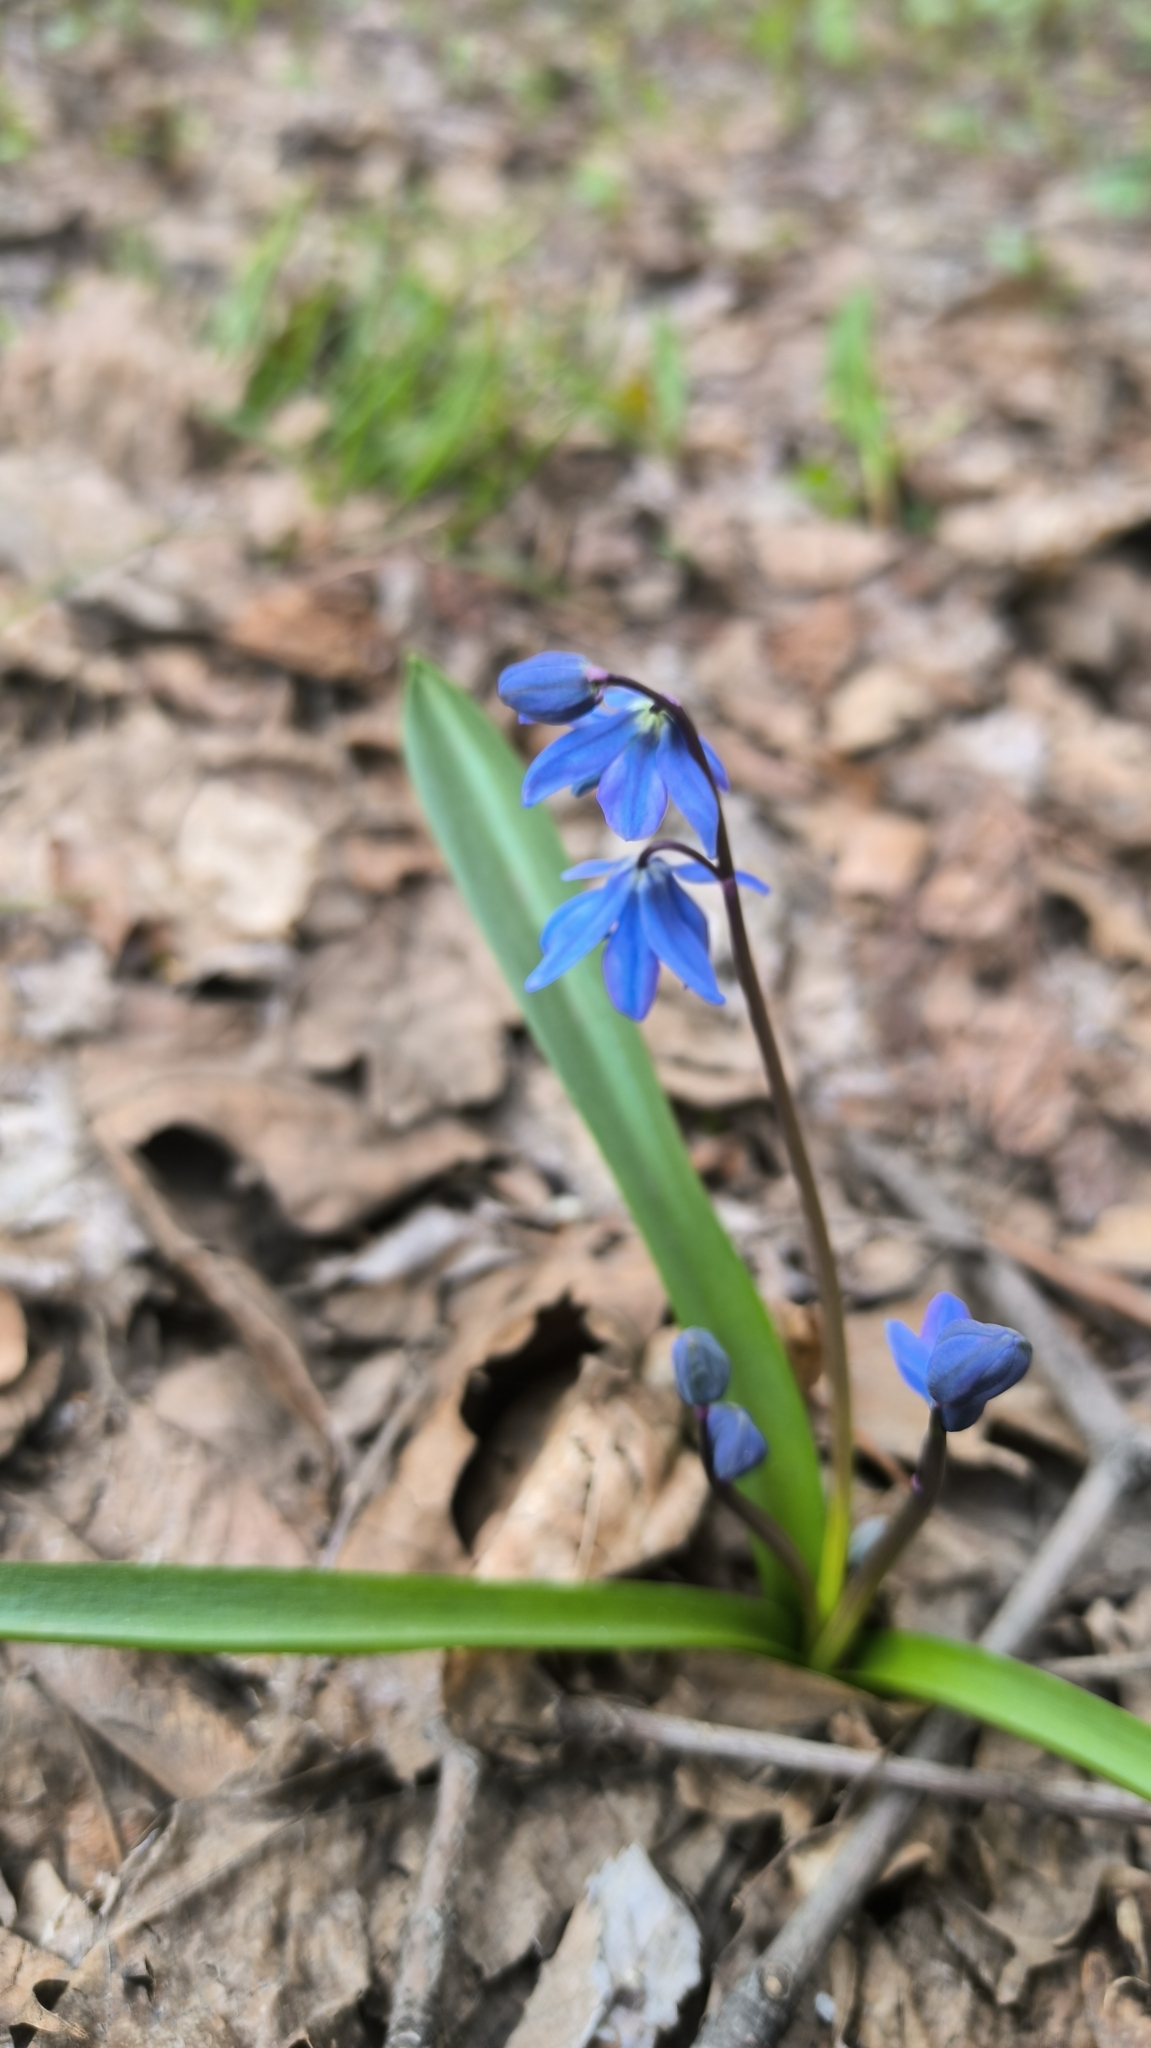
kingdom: Plantae
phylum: Tracheophyta
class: Liliopsida
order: Asparagales
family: Asparagaceae
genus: Scilla
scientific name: Scilla siberica
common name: Siberian squill
